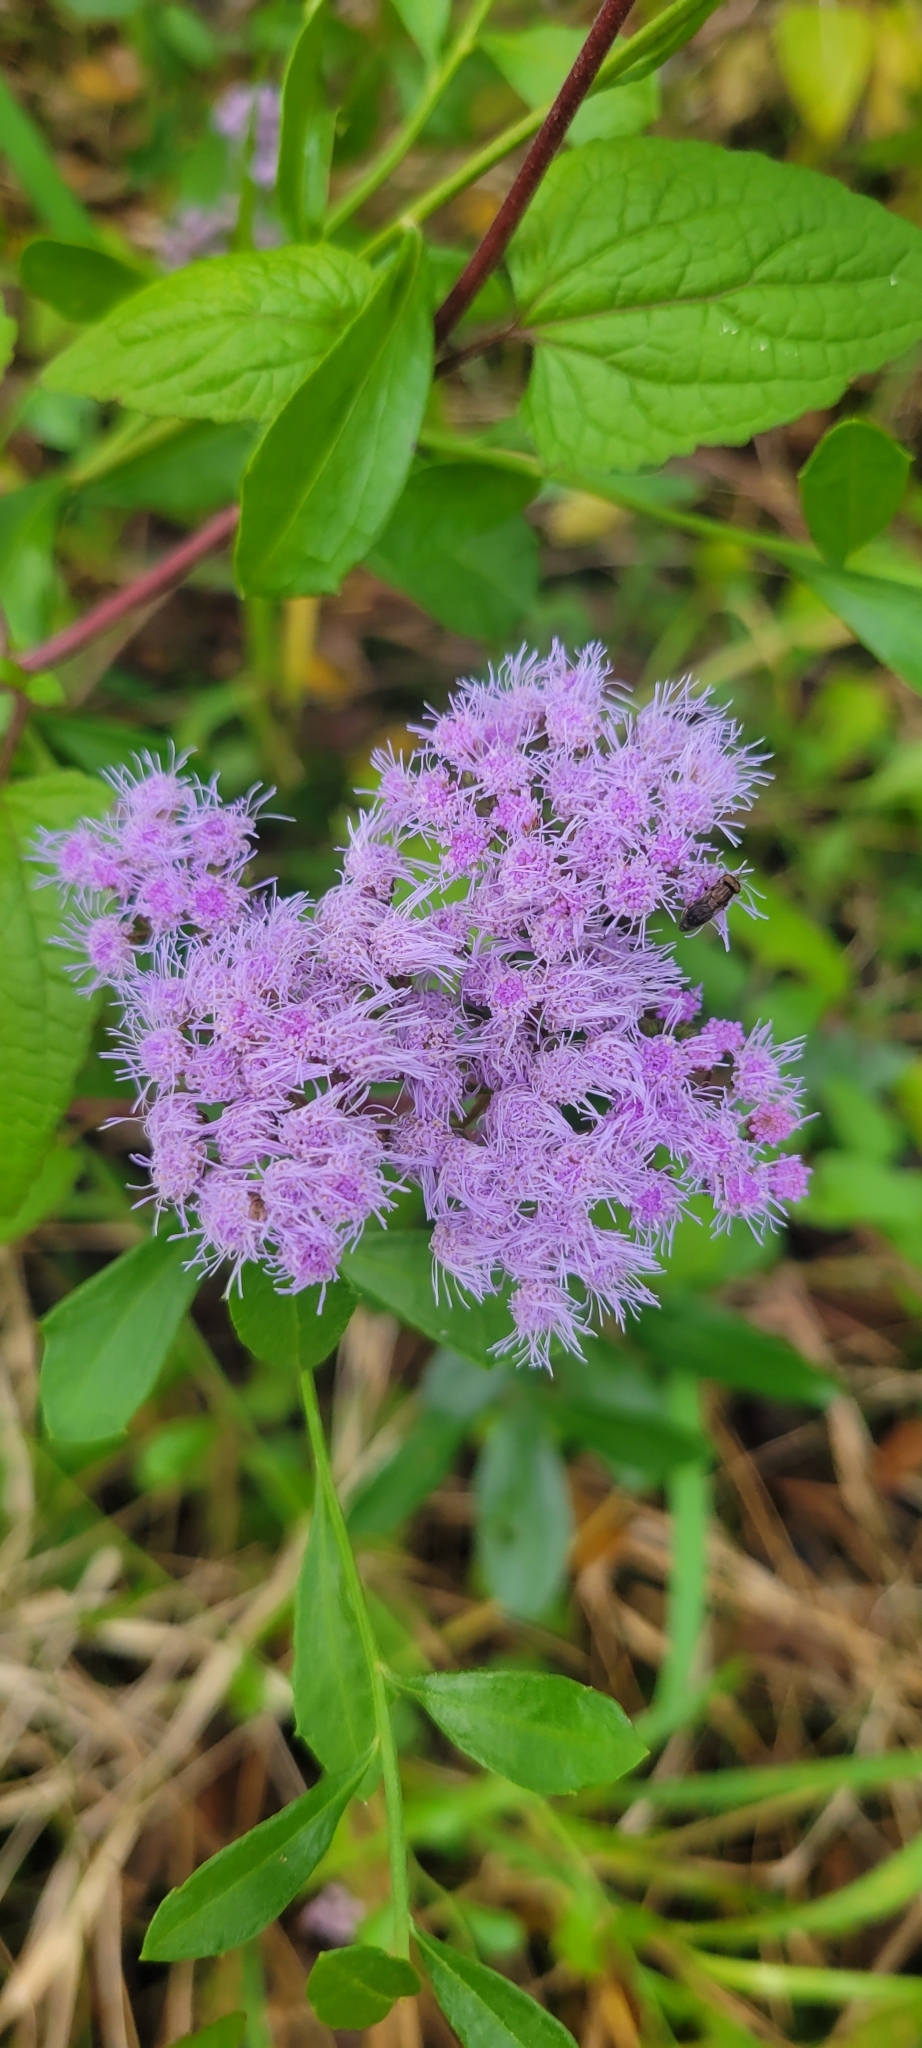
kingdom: Plantae
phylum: Tracheophyta
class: Magnoliopsida
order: Asterales
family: Asteraceae
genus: Conoclinium
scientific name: Conoclinium coelestinum
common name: Blue mistflower
